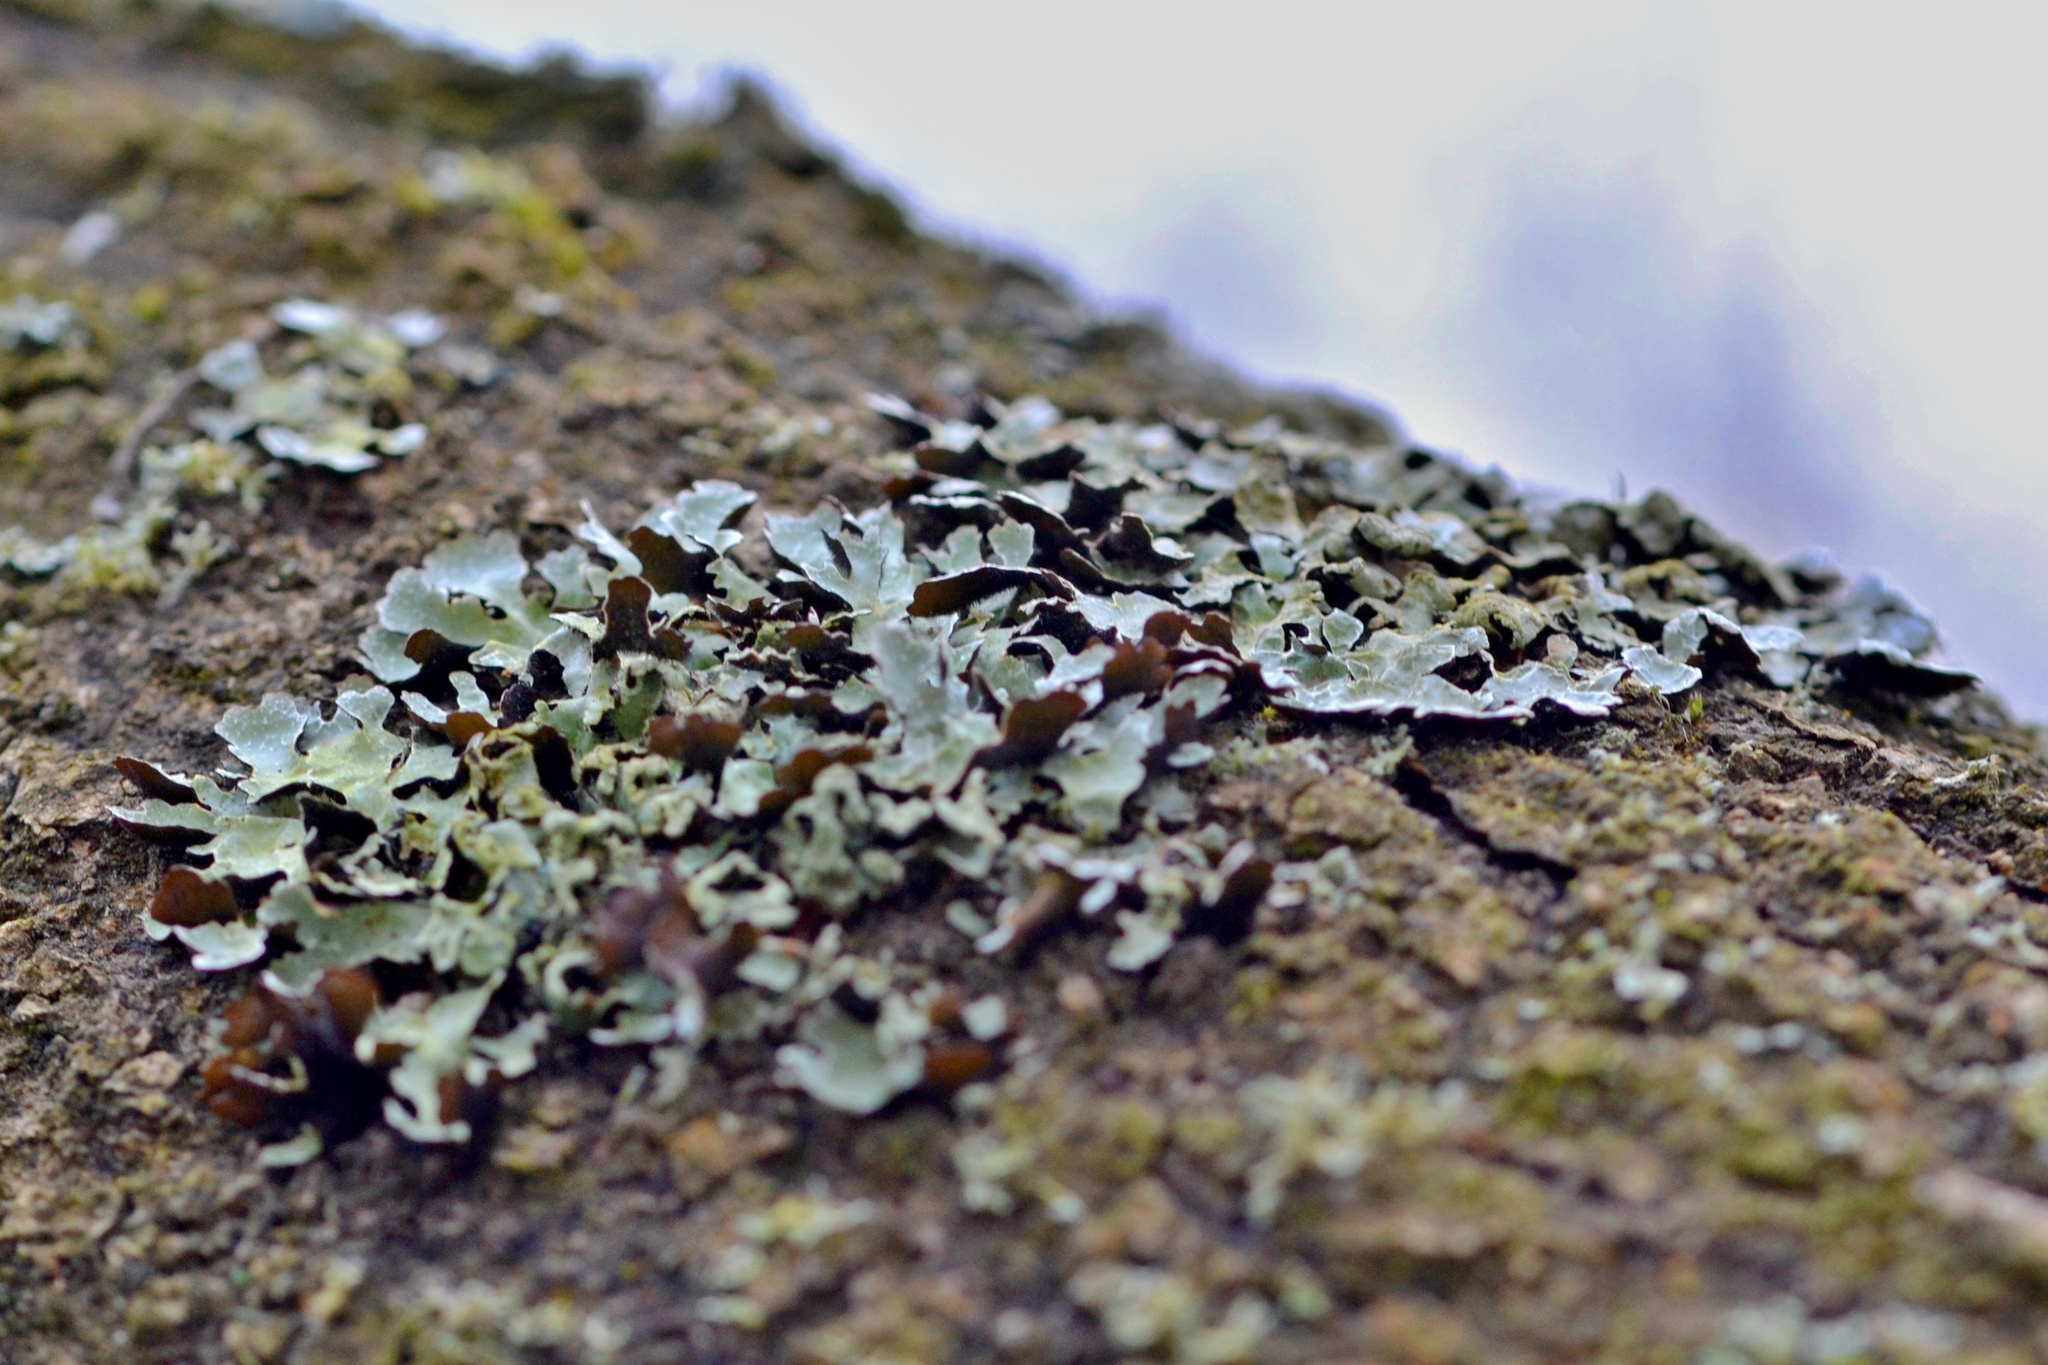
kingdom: Fungi
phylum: Ascomycota
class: Lecanoromycetes
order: Lecanorales
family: Parmeliaceae
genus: Parmelia
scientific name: Parmelia sulcata
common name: Netted shield lichen
